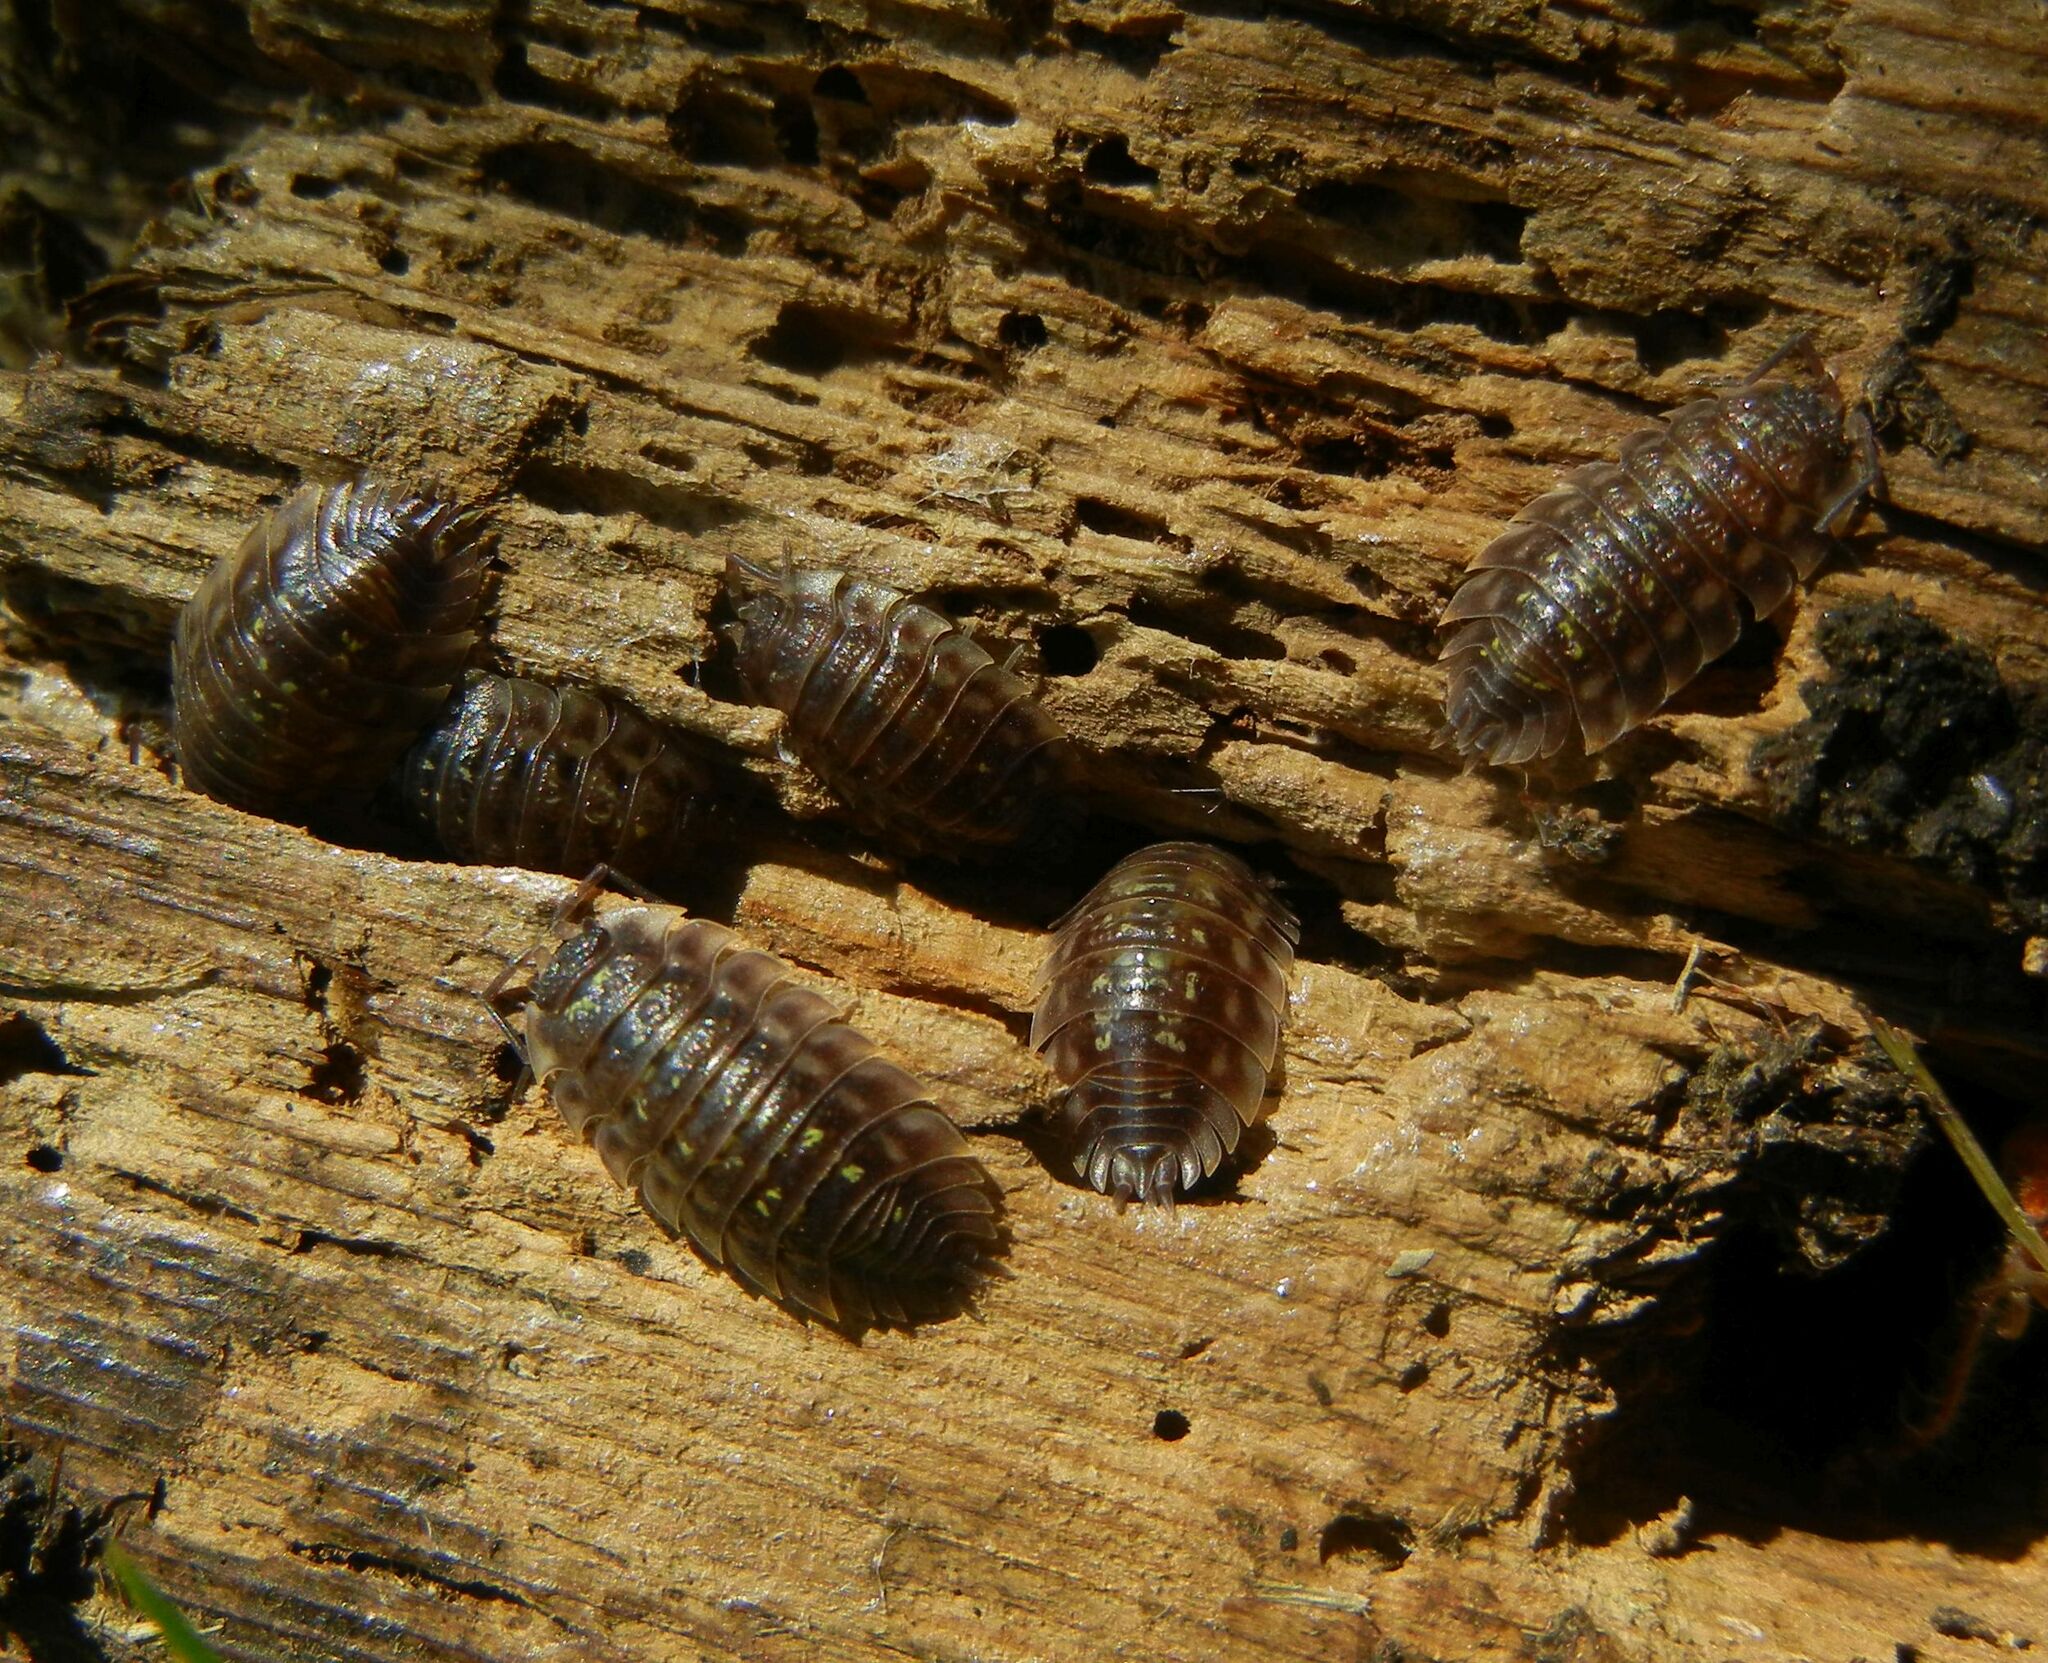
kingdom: Animalia
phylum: Arthropoda
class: Malacostraca
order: Isopoda
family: Oniscidae
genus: Oniscus
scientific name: Oniscus asellus
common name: Common shiny woodlouse
